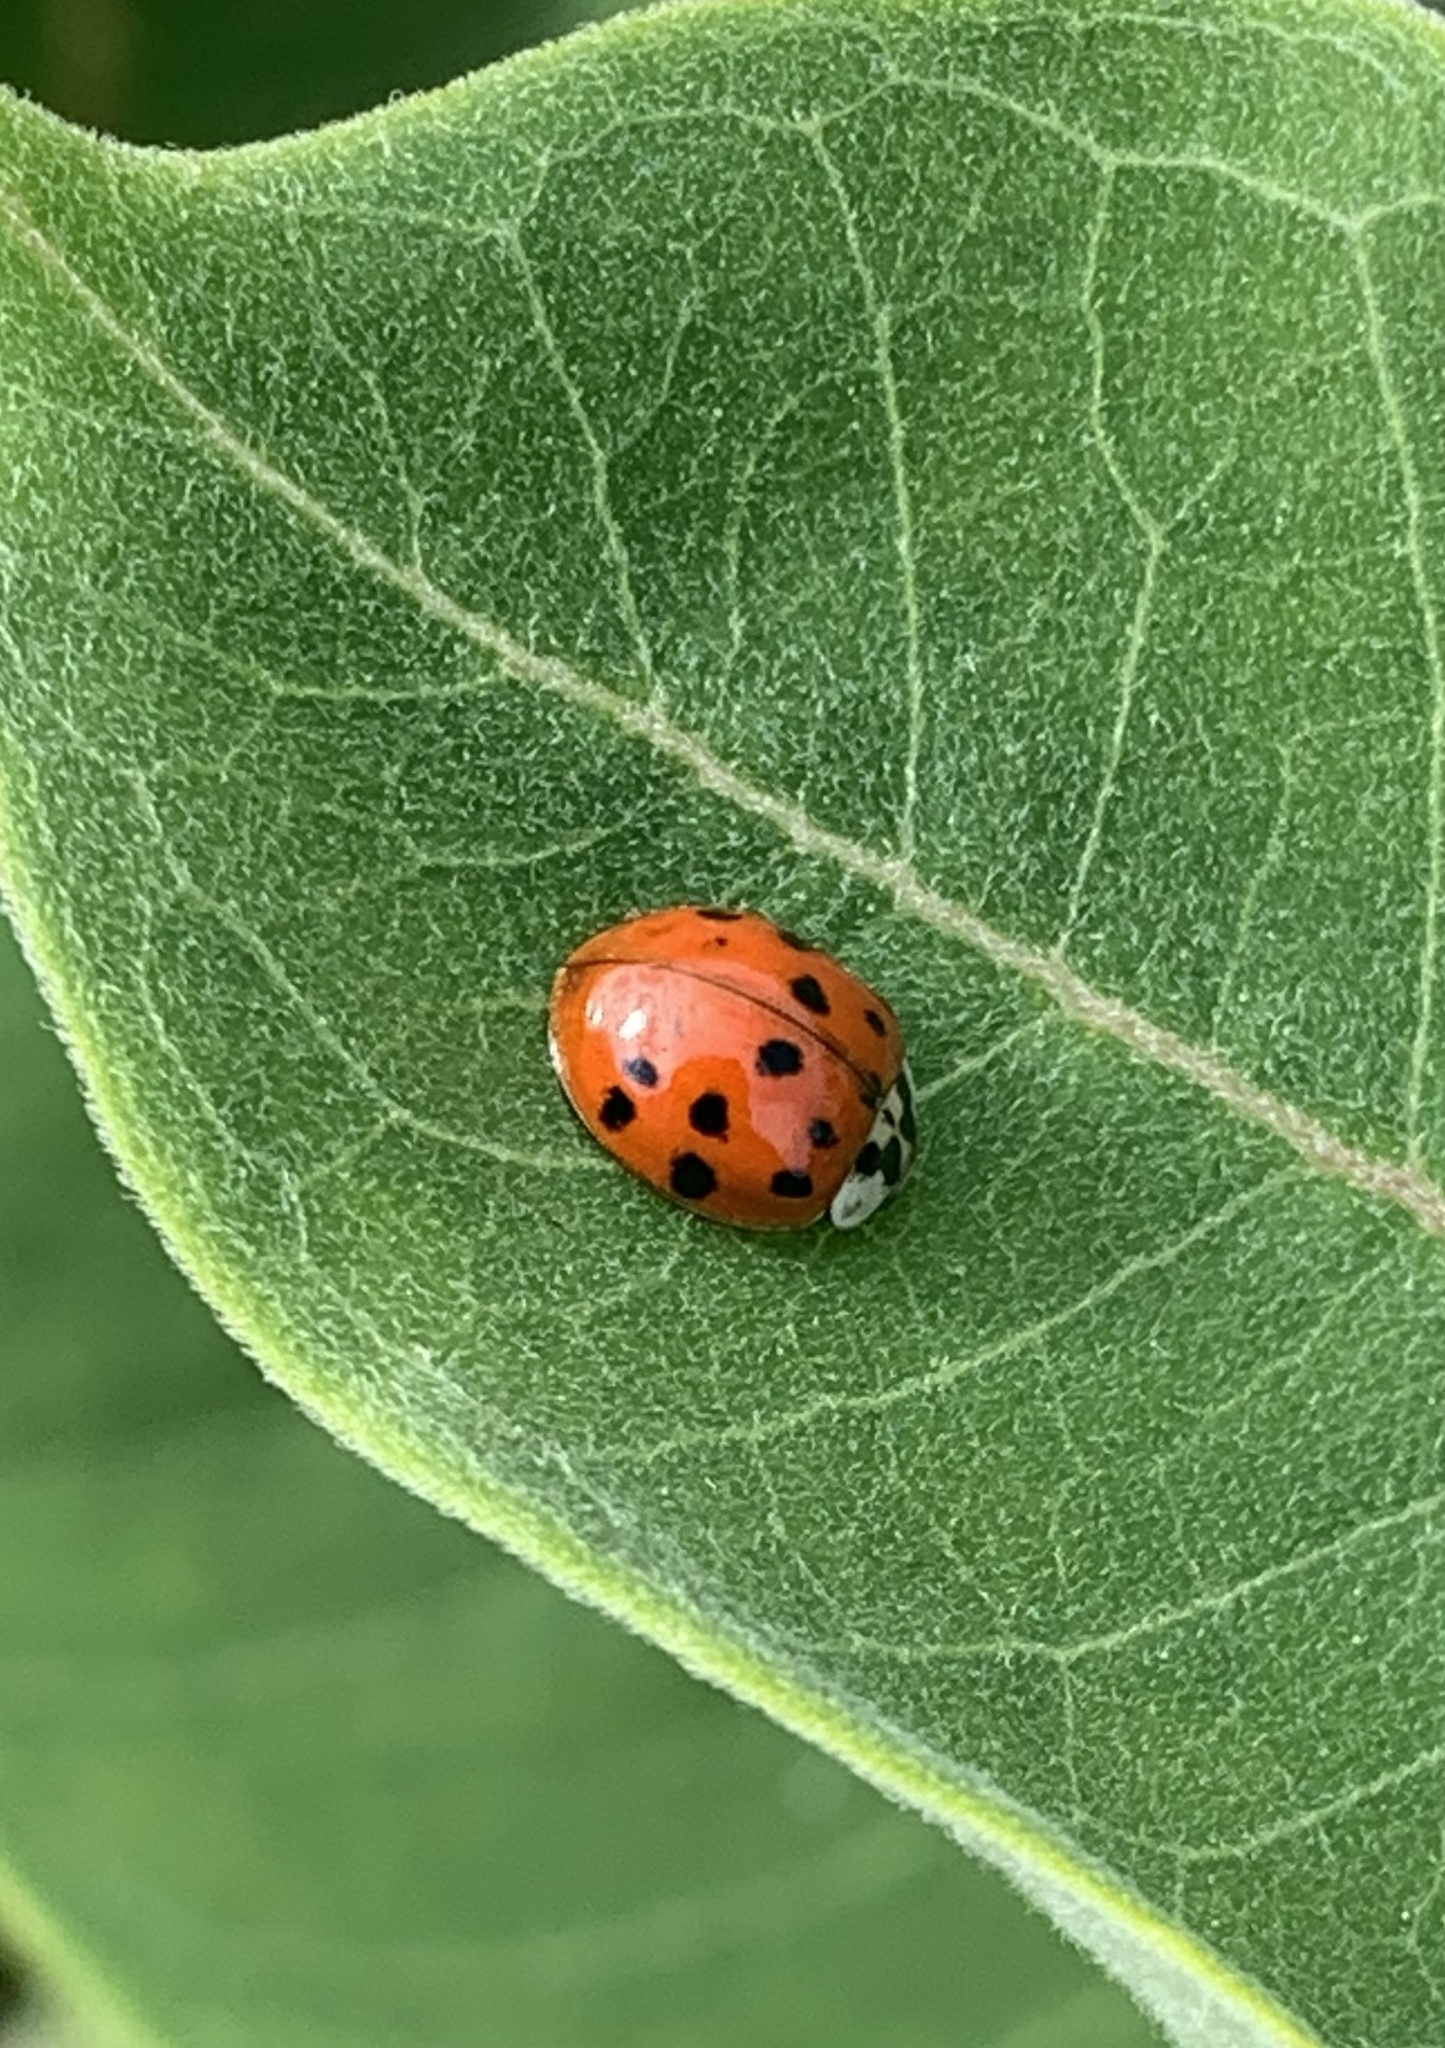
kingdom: Animalia
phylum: Arthropoda
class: Insecta
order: Coleoptera
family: Coccinellidae
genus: Harmonia
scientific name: Harmonia axyridis
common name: Harlequin ladybird
